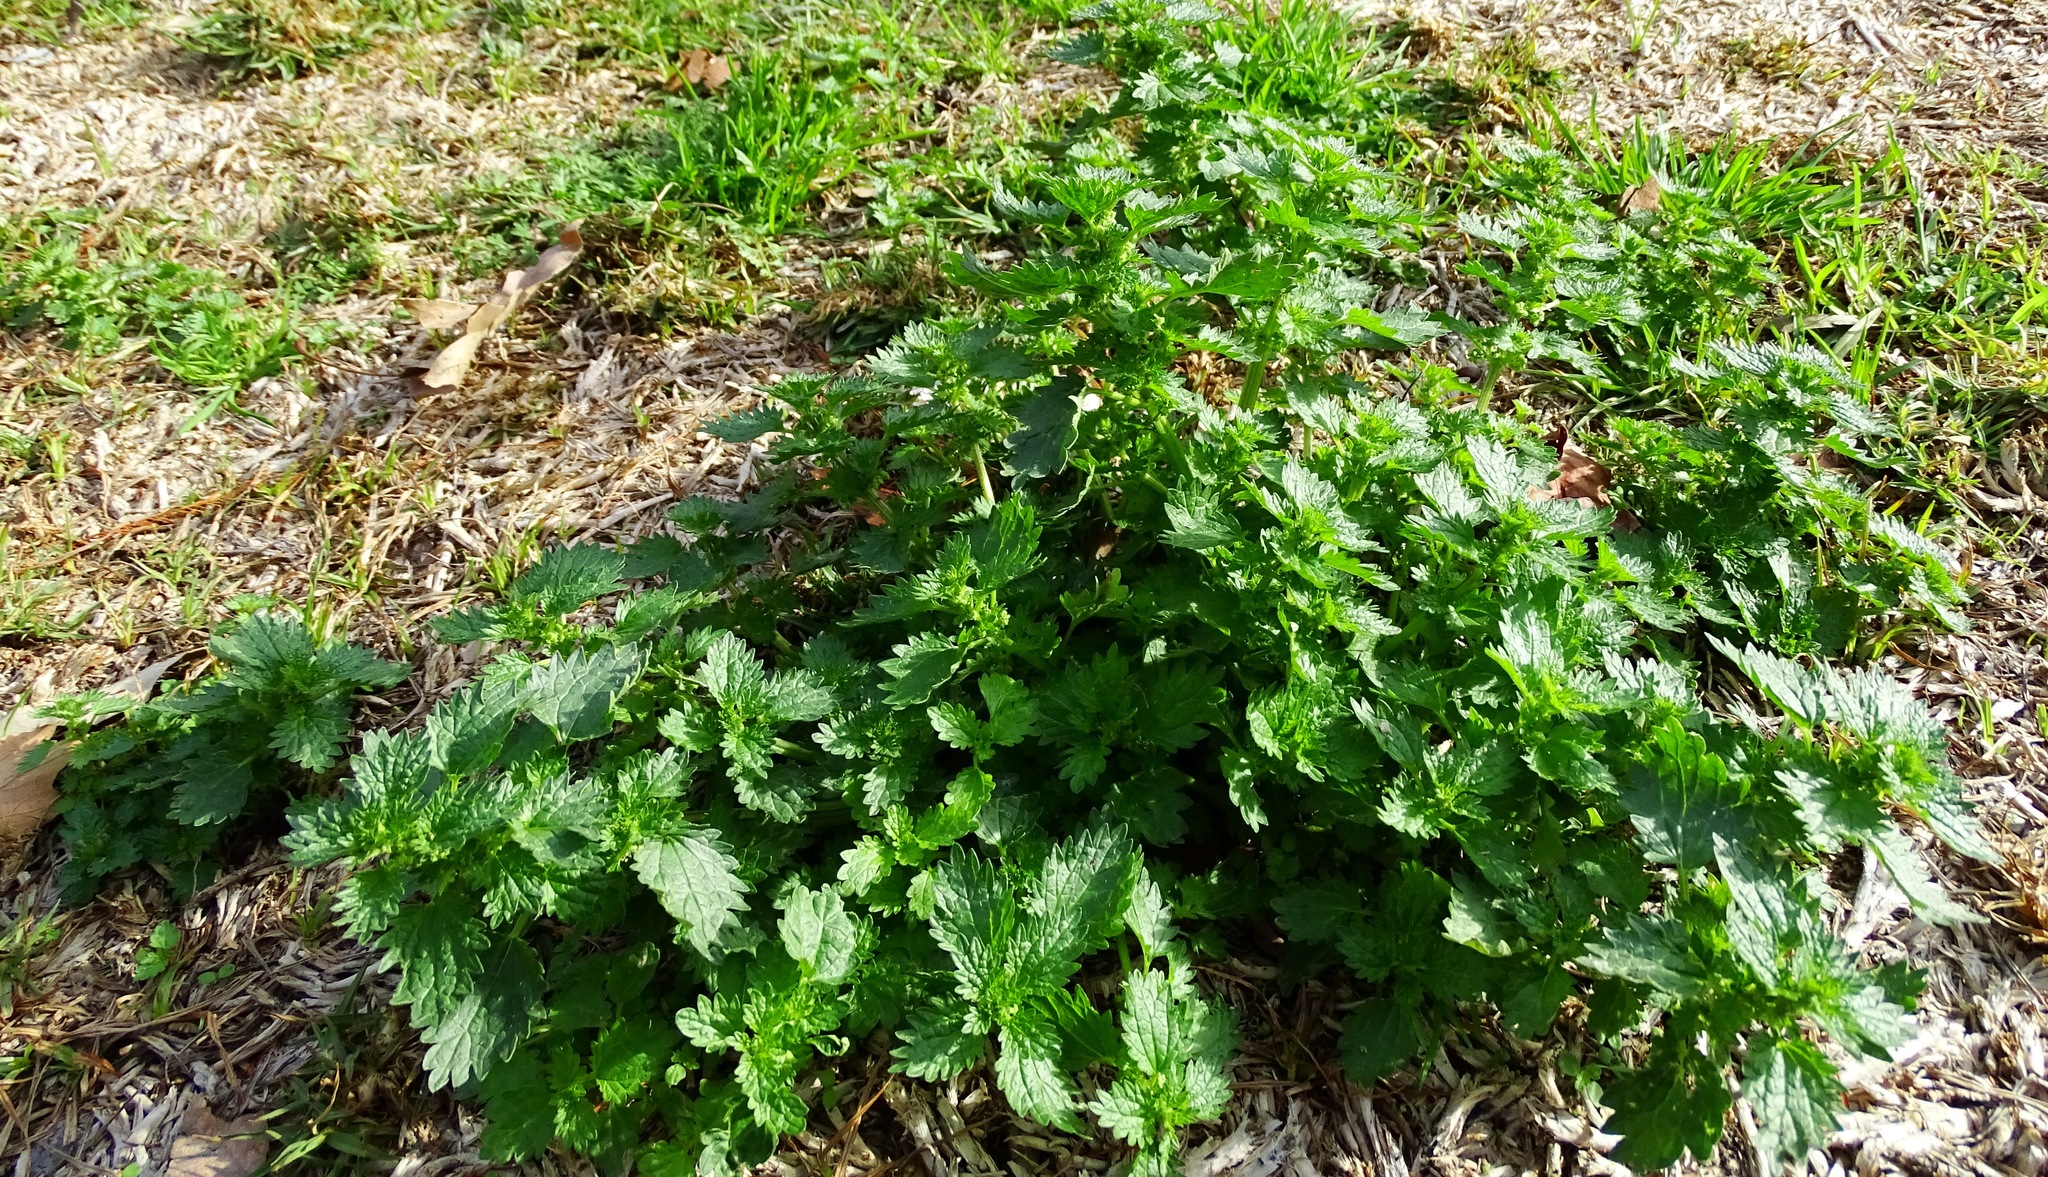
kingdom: Plantae
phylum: Tracheophyta
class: Magnoliopsida
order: Rosales
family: Urticaceae
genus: Urtica
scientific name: Urtica urens
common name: Dwarf nettle
